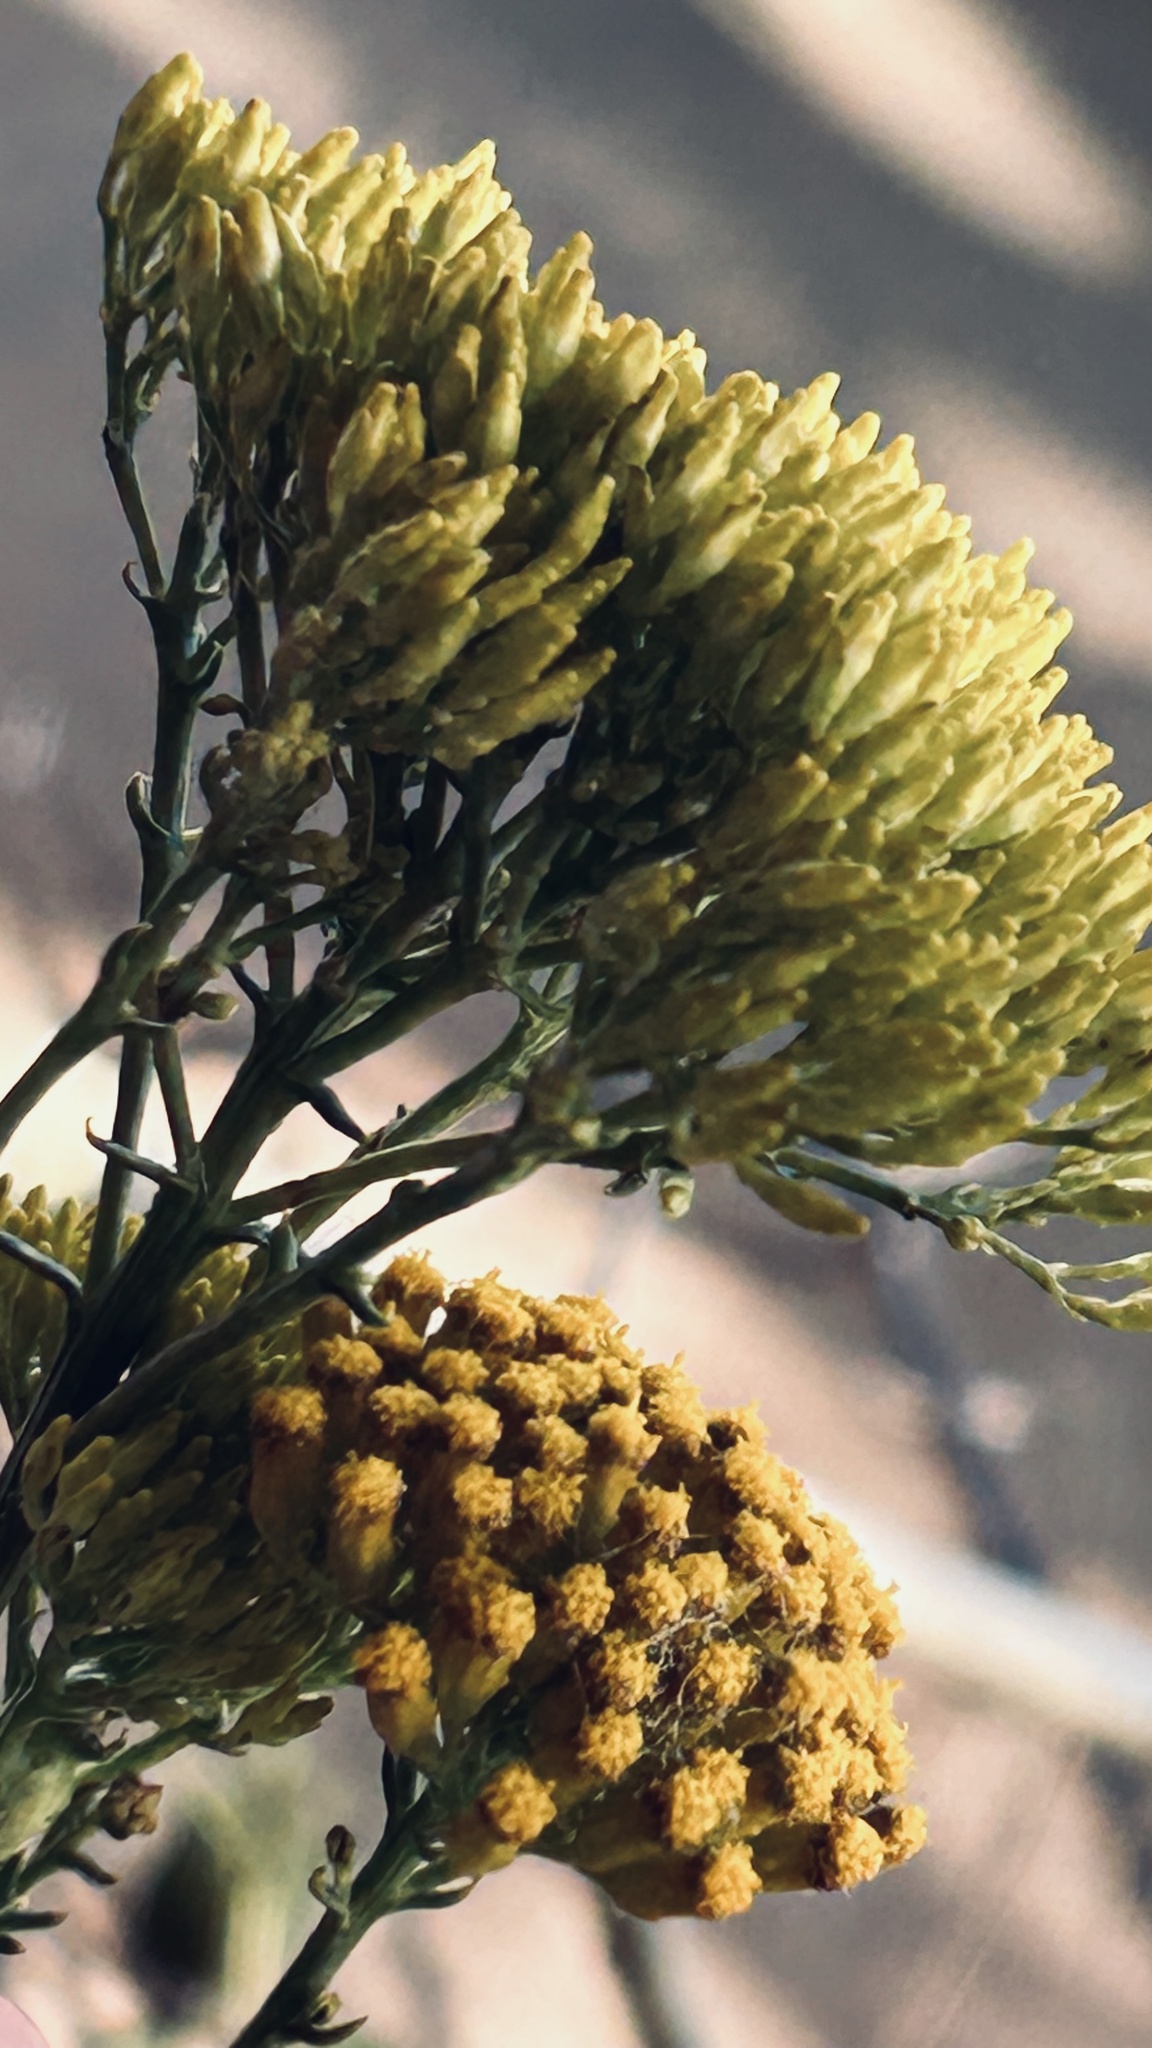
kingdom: Plantae
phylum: Tracheophyta
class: Magnoliopsida
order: Asterales
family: Asteraceae
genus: Athanasia
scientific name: Athanasia juncea
